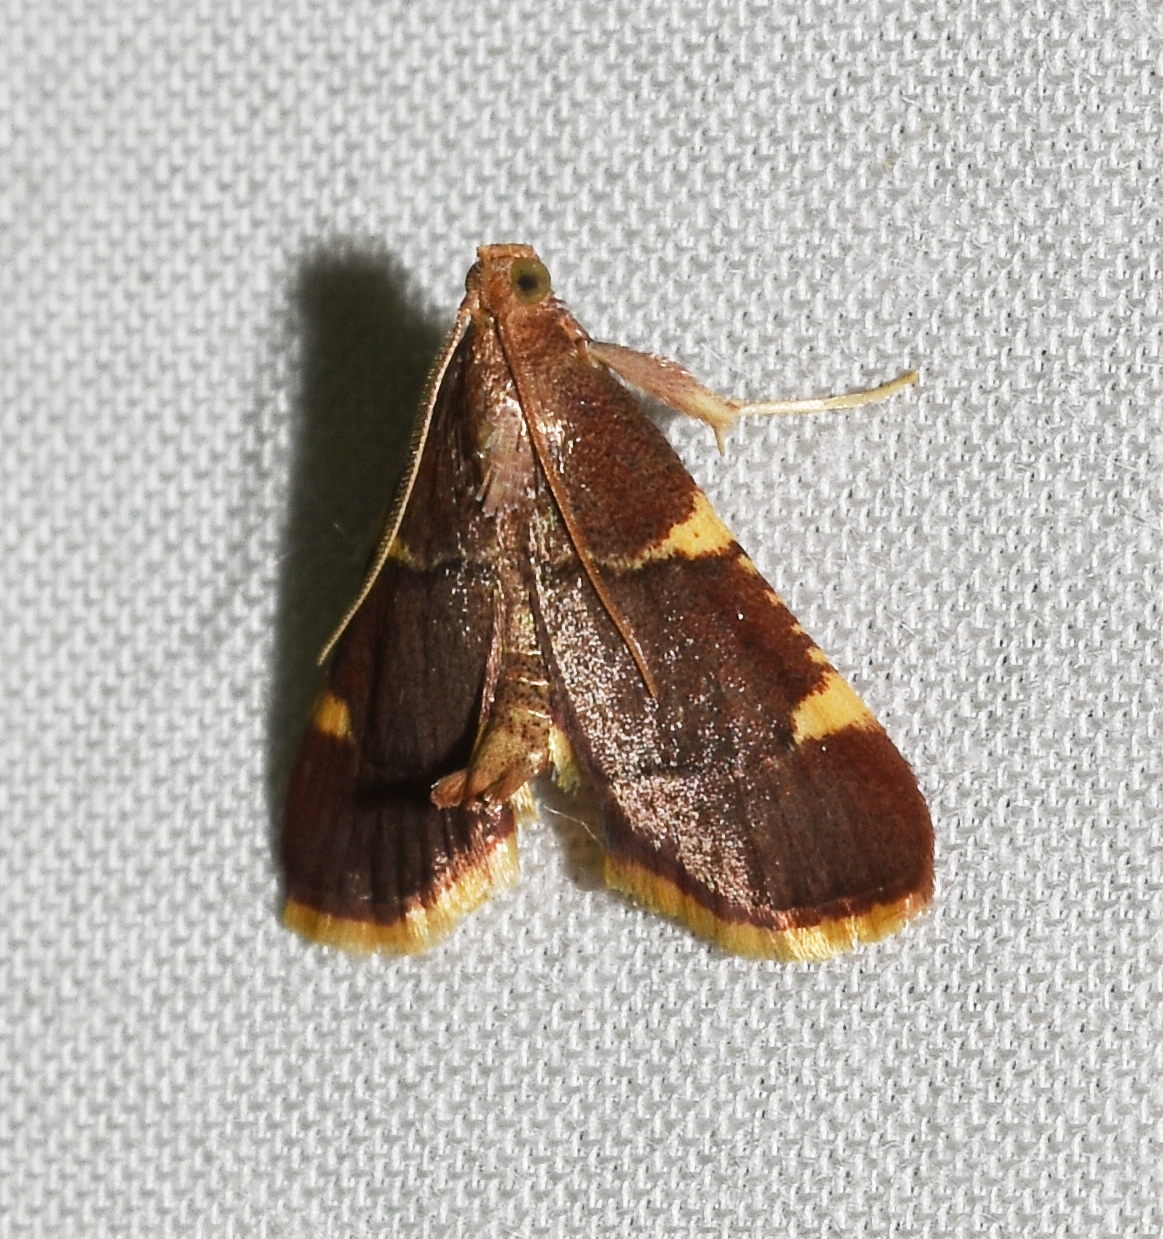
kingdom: Animalia
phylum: Arthropoda
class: Insecta
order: Lepidoptera
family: Pyralidae
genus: Hypsopygia
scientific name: Hypsopygia olinalis
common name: Yellow-fringed dolichomia moth
